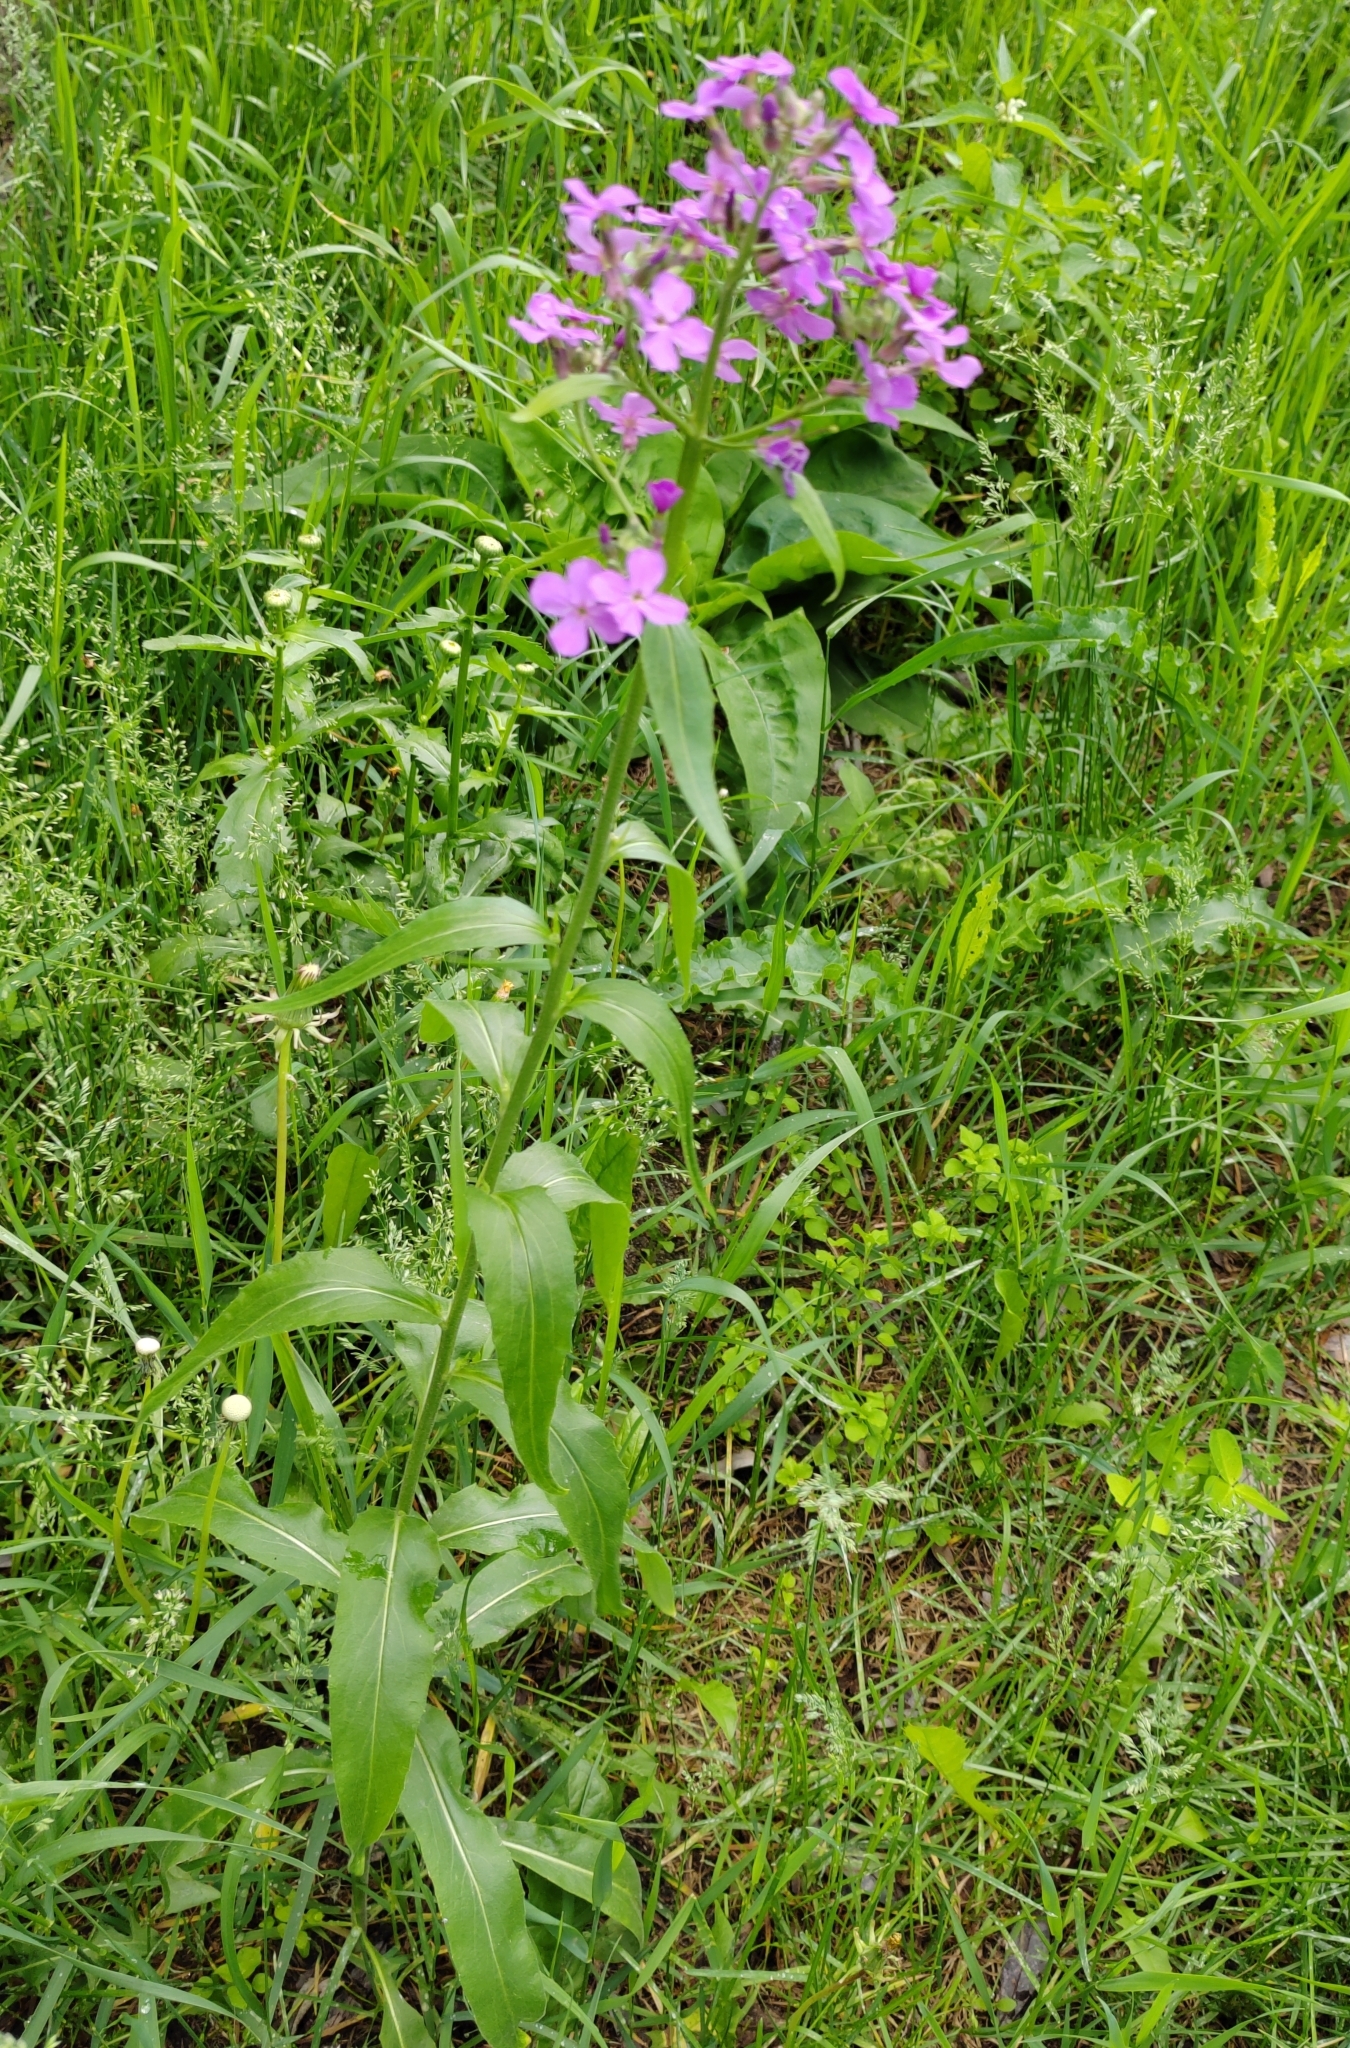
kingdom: Plantae
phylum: Tracheophyta
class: Magnoliopsida
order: Brassicales
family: Brassicaceae
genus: Hesperis
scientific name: Hesperis matronalis
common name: Dame's-violet
